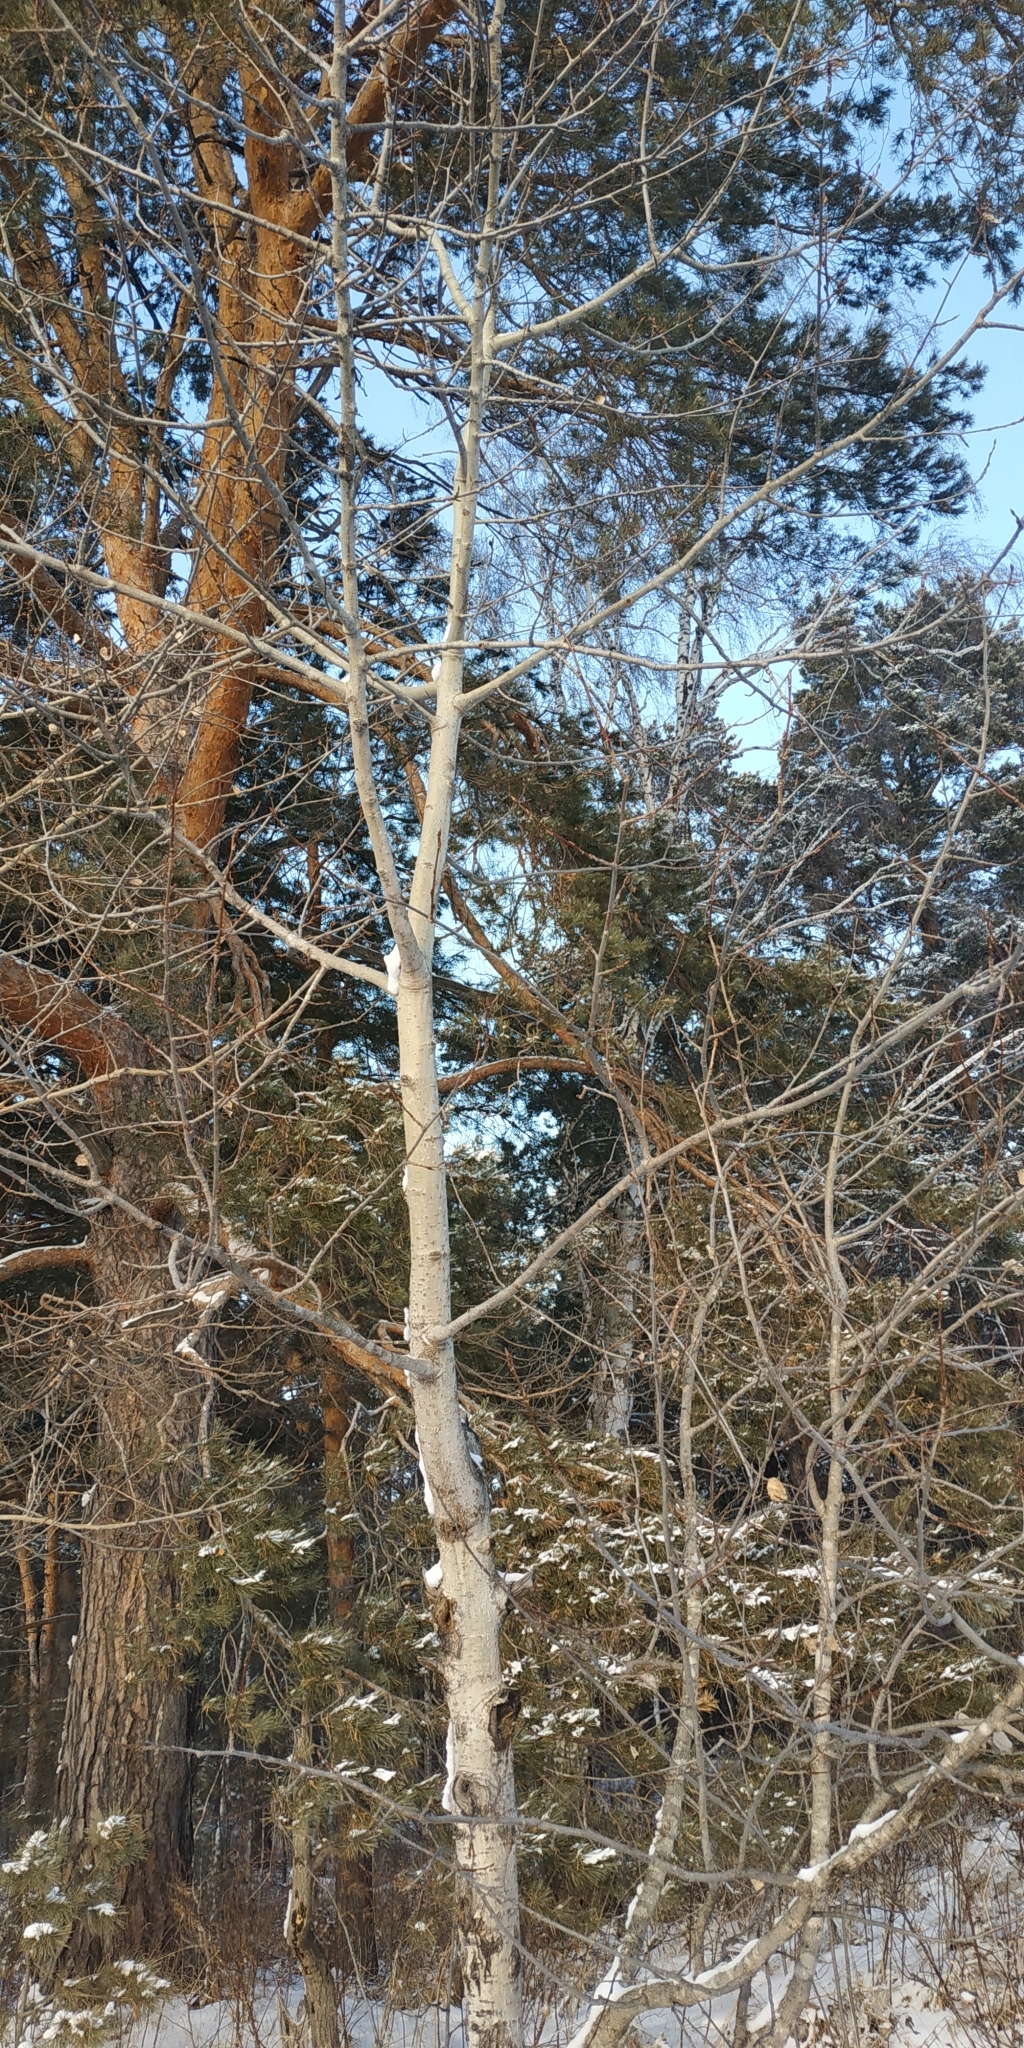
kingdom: Plantae
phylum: Tracheophyta
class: Magnoliopsida
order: Malpighiales
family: Salicaceae
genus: Populus
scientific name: Populus tremula
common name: European aspen
